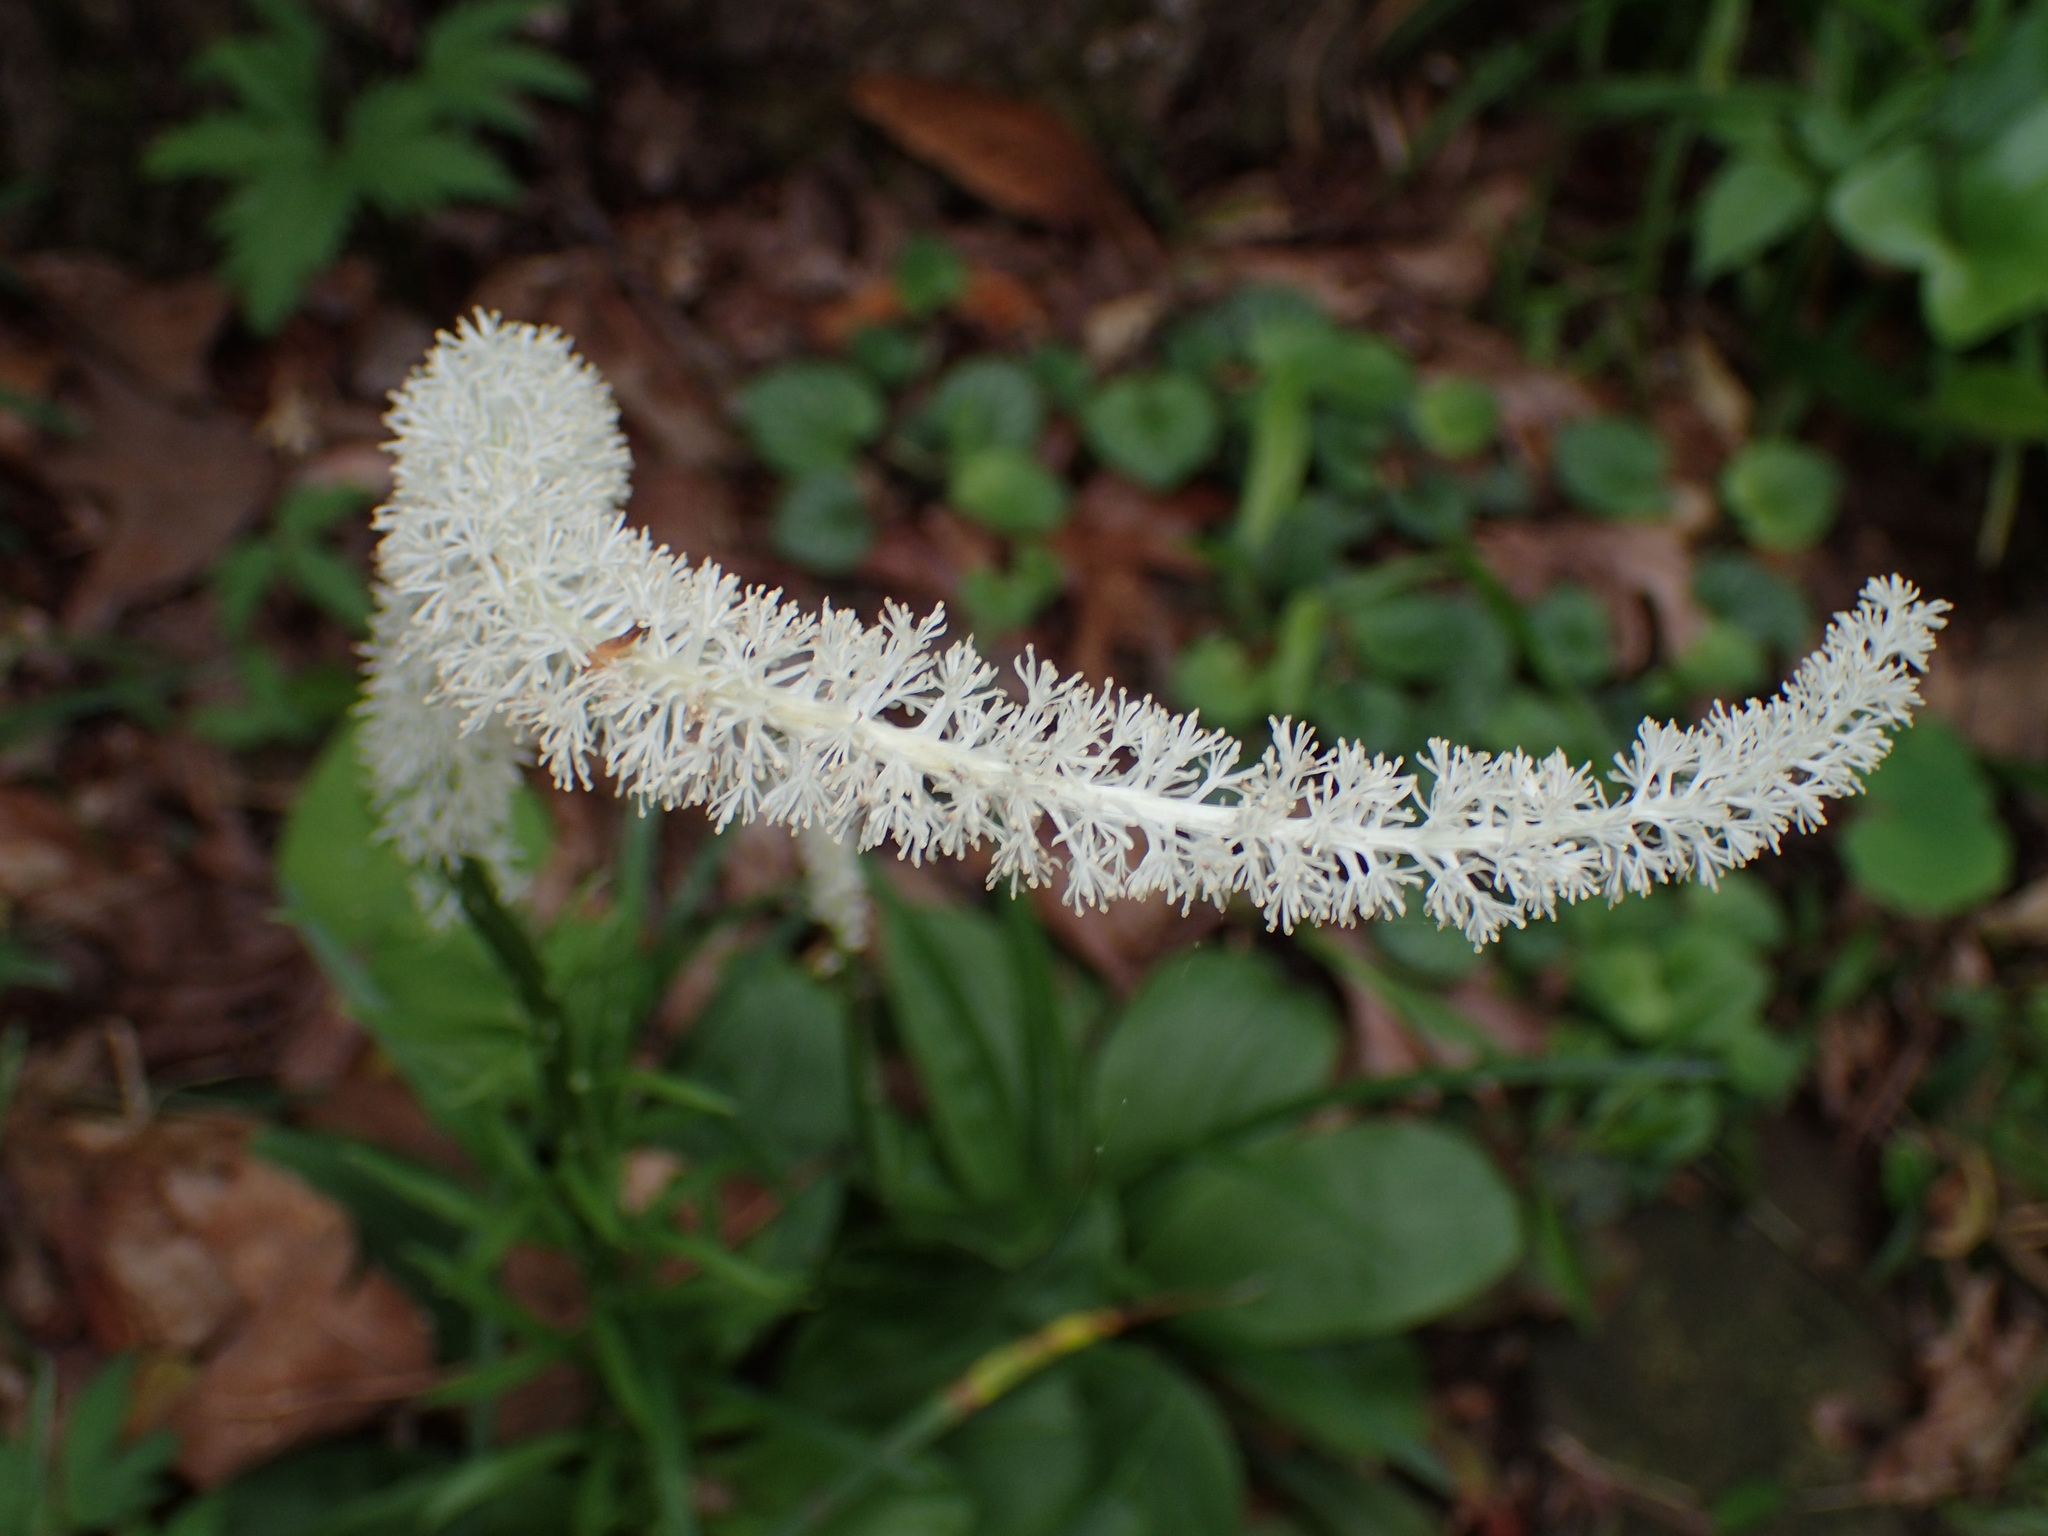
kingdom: Plantae
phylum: Tracheophyta
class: Liliopsida
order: Liliales
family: Melanthiaceae
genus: Chamaelirium
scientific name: Chamaelirium luteum
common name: Fairy-wand
